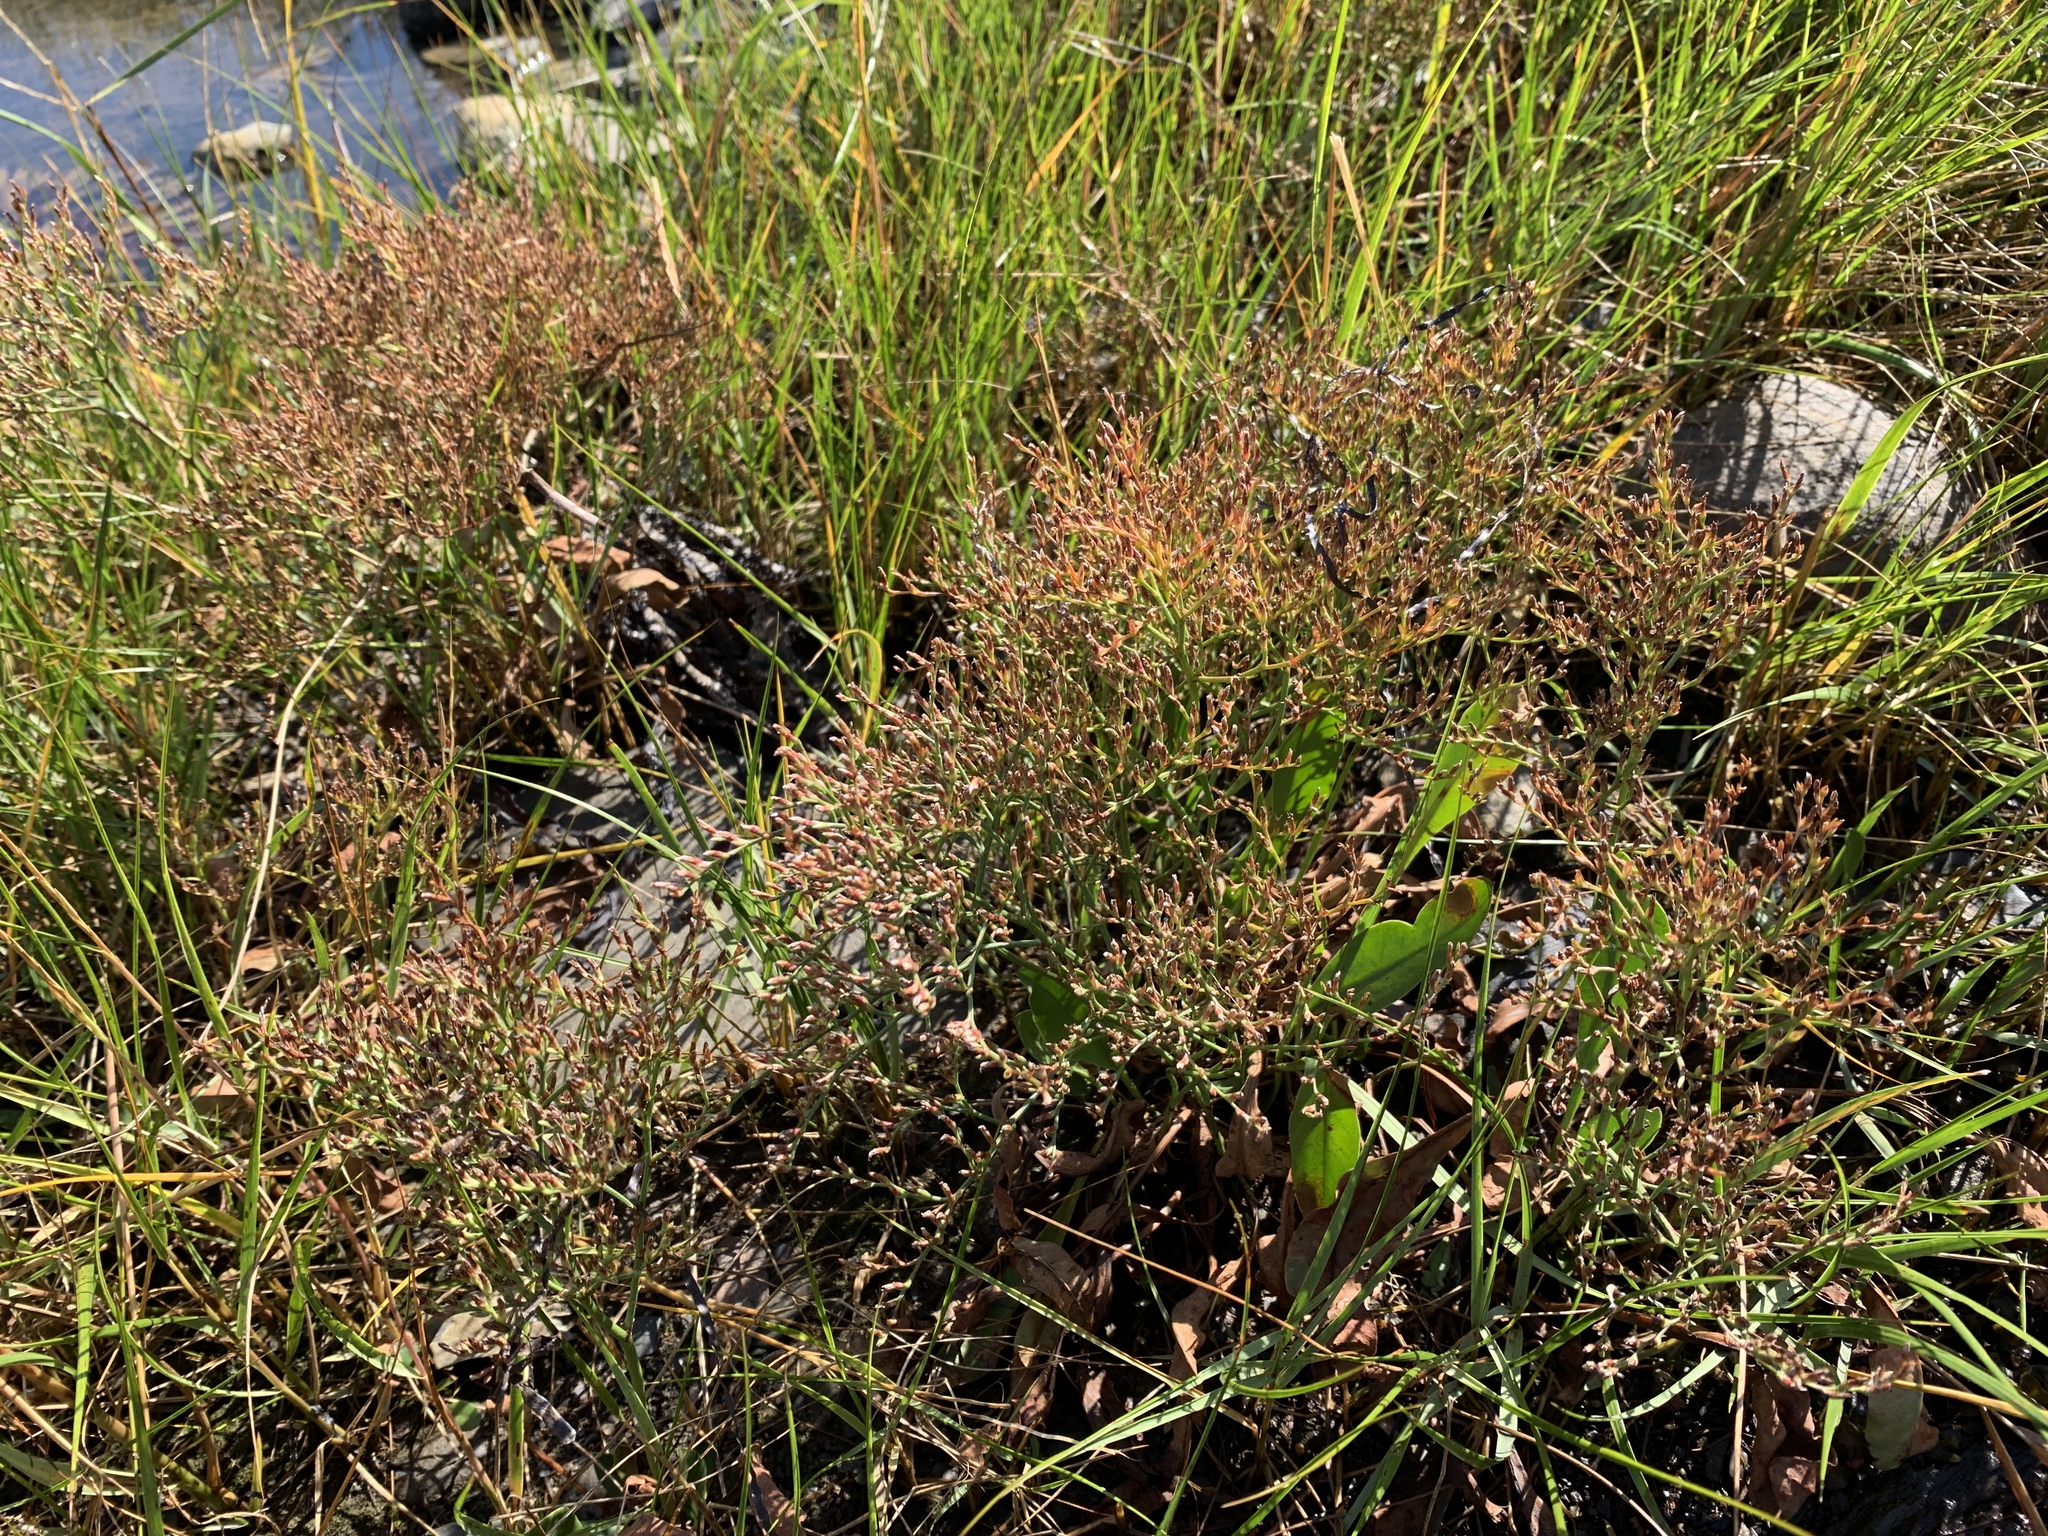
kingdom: Plantae
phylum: Tracheophyta
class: Magnoliopsida
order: Caryophyllales
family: Plumbaginaceae
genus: Limonium
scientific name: Limonium carolinianum
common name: Carolina sea lavender
